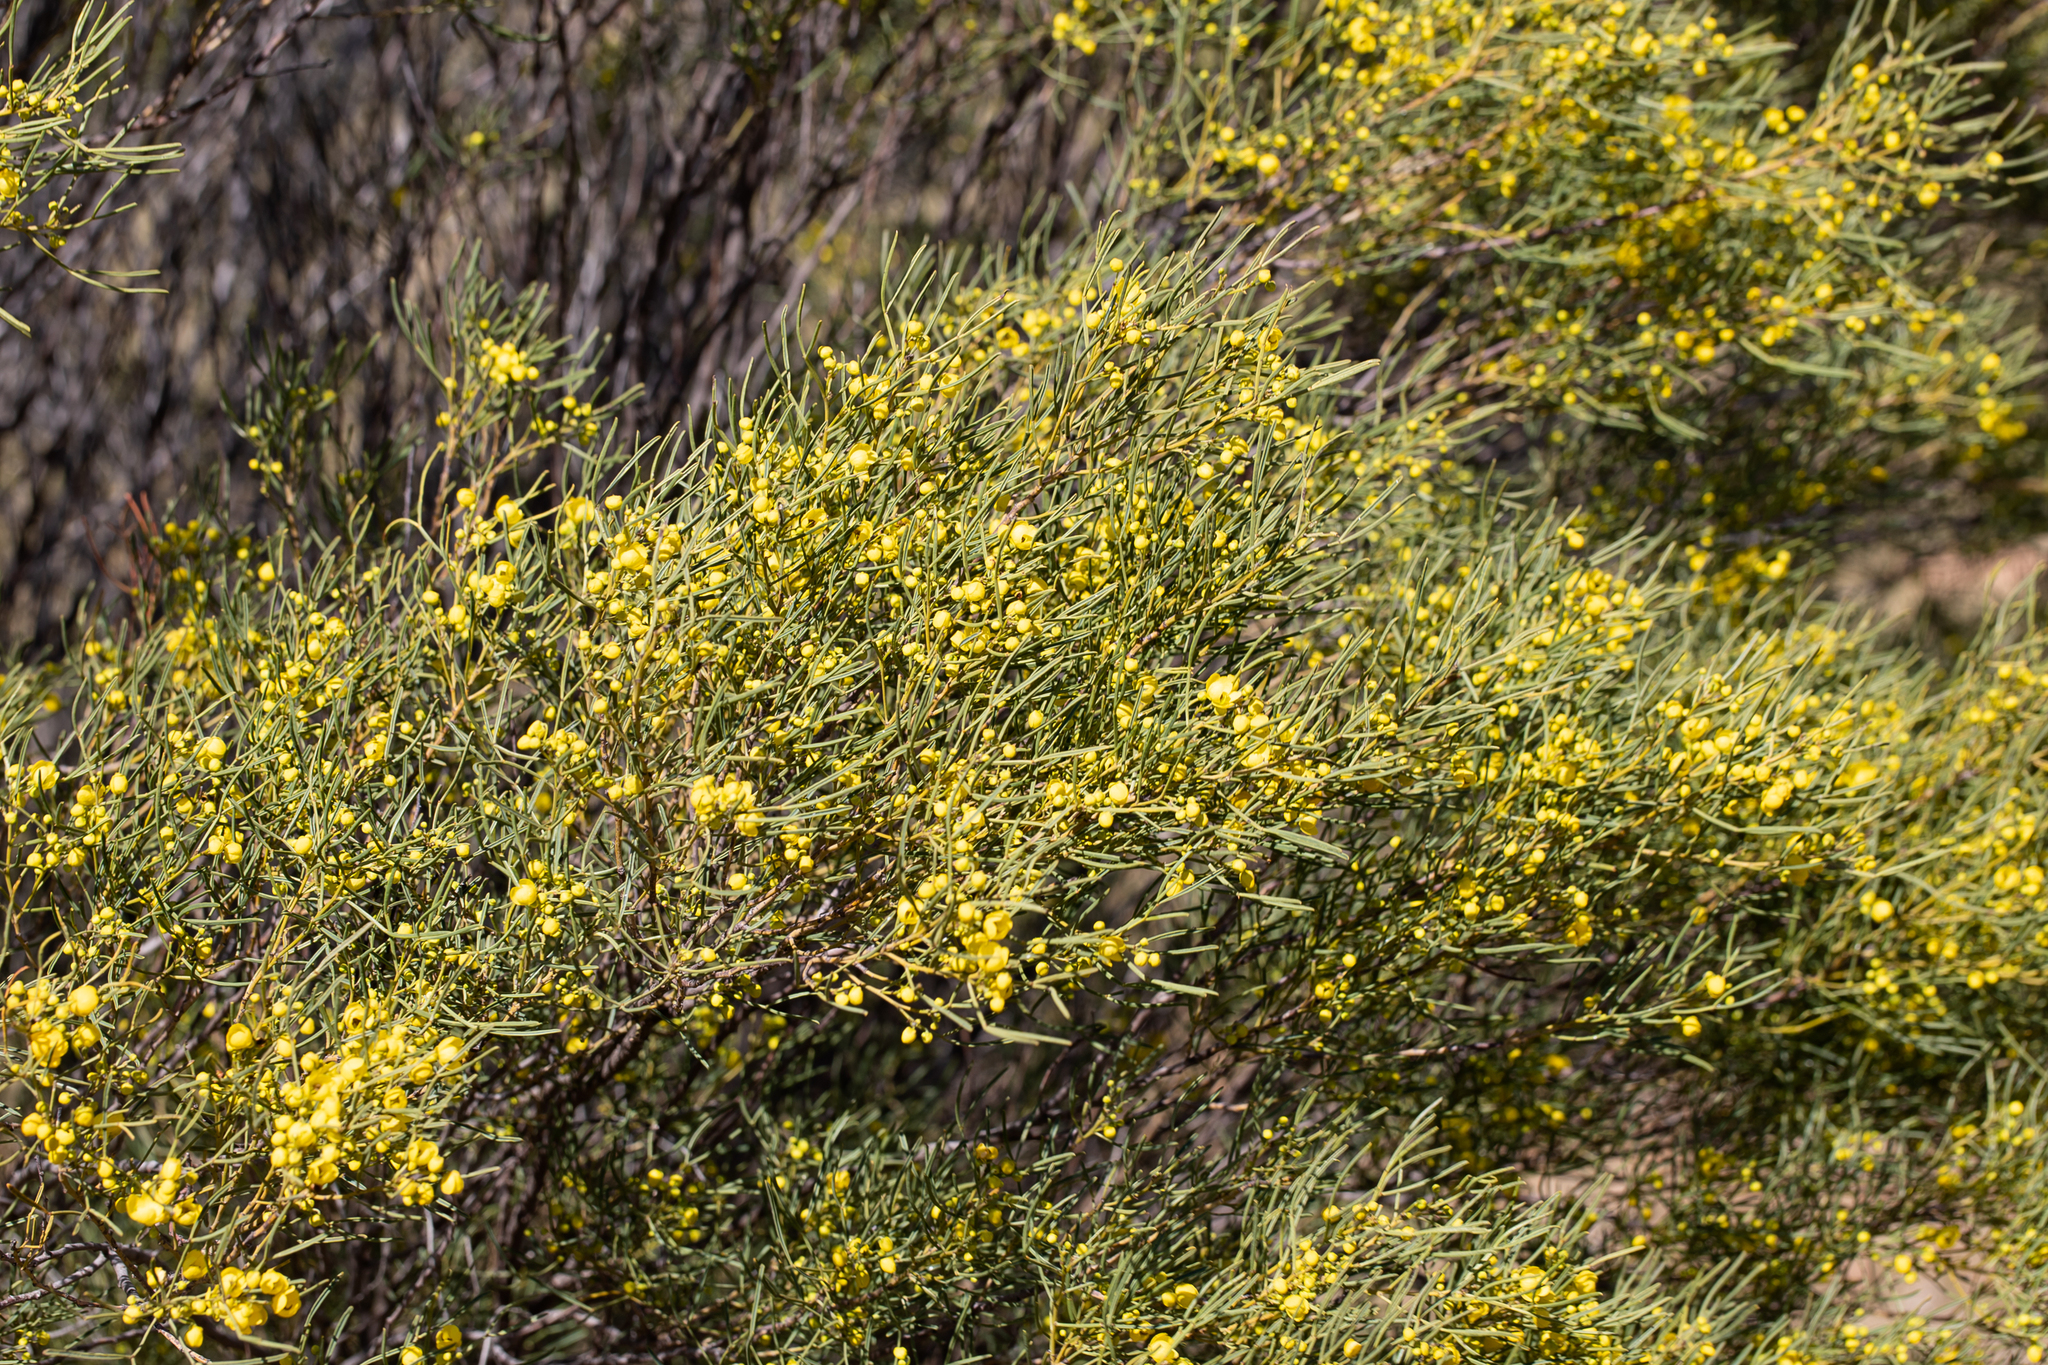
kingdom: Plantae
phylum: Tracheophyta
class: Magnoliopsida
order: Fabales
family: Fabaceae
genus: Senna
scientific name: Senna artemisioides
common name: Burnt-leaved acacia
